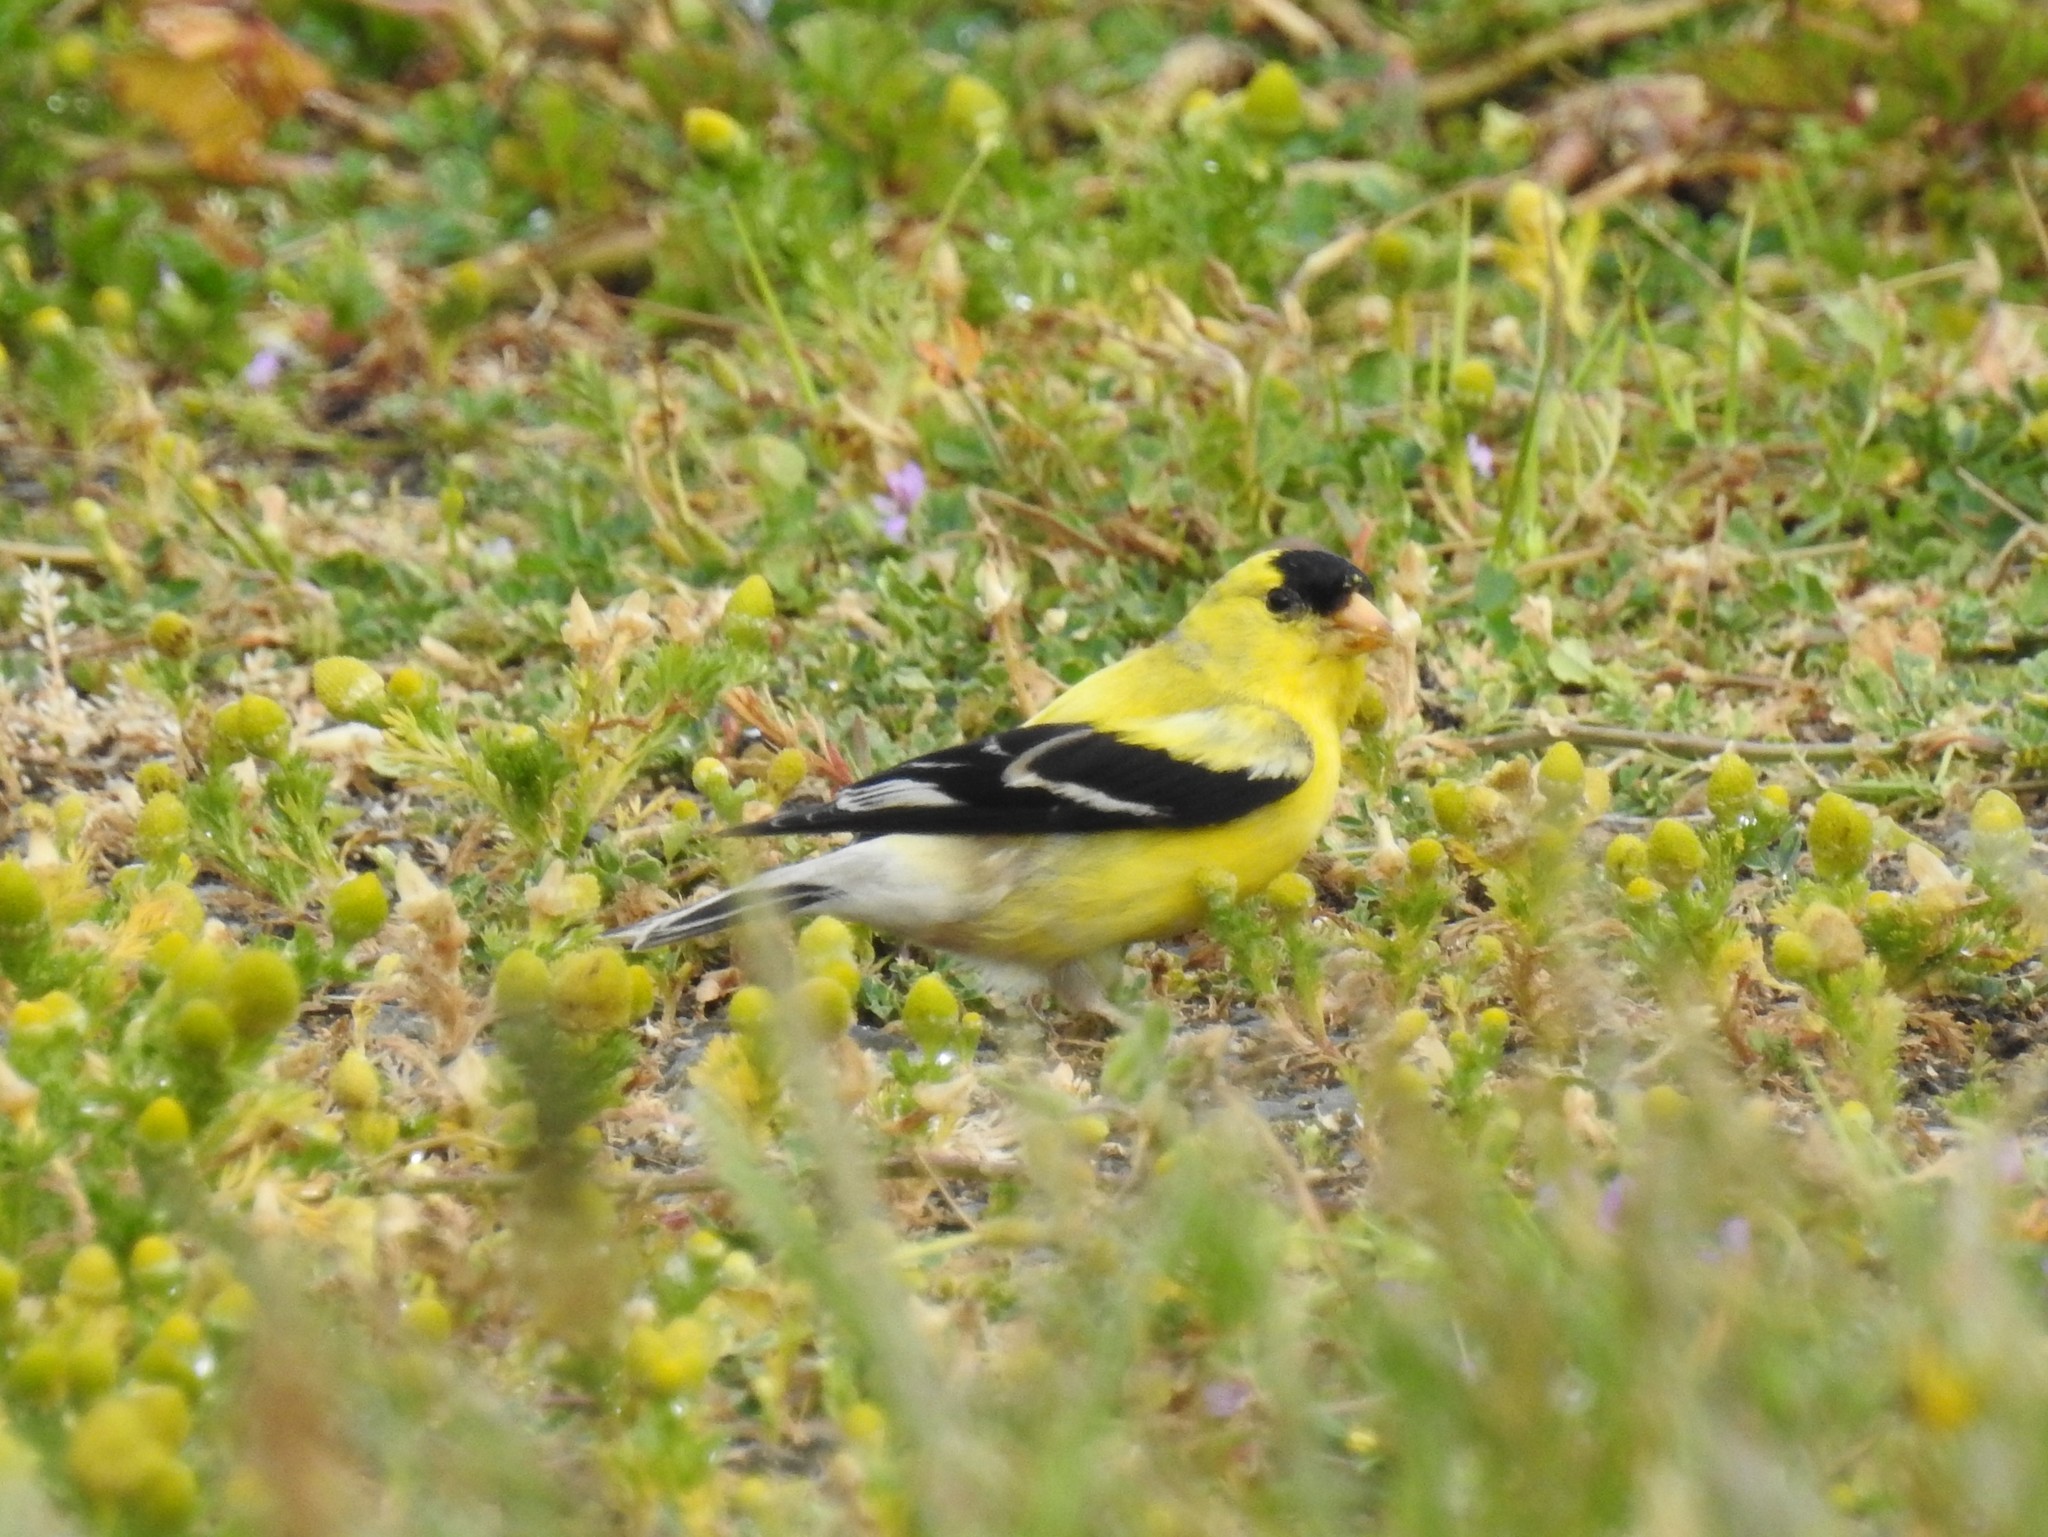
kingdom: Animalia
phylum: Chordata
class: Aves
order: Passeriformes
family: Fringillidae
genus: Spinus
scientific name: Spinus tristis
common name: American goldfinch
